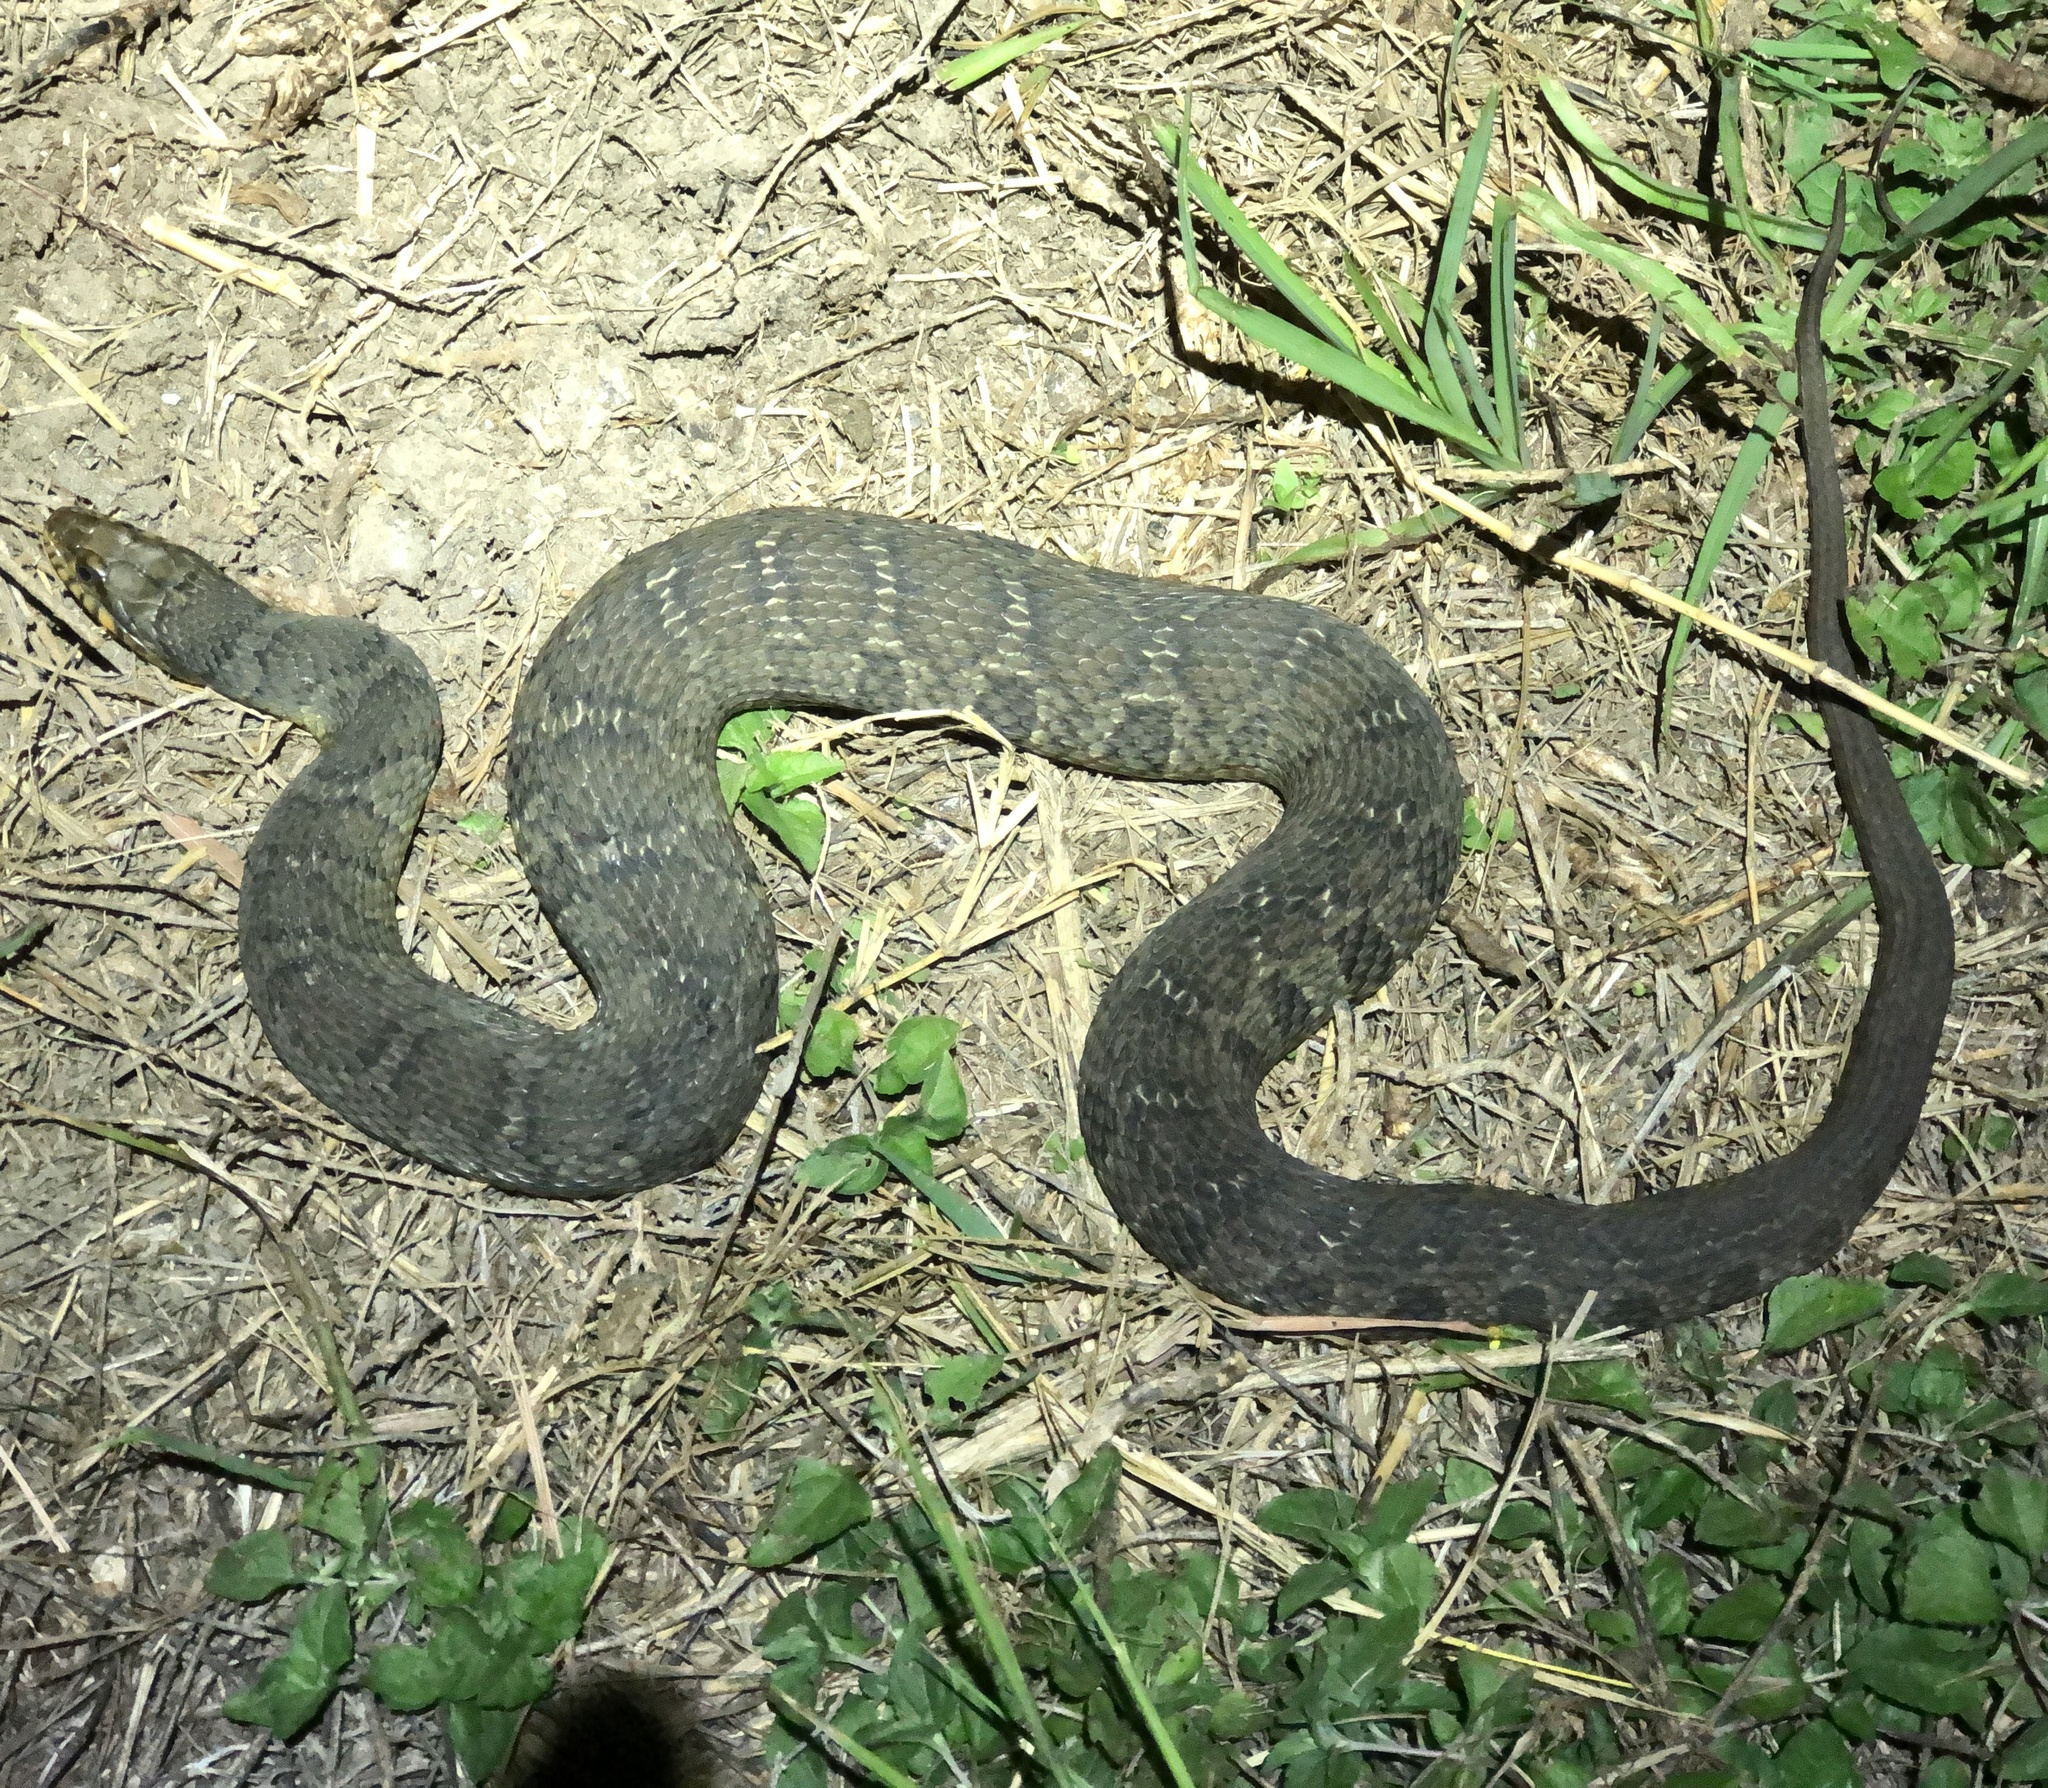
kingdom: Animalia
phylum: Chordata
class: Squamata
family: Colubridae
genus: Nerodia
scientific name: Nerodia erythrogaster
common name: Plainbelly water snake
